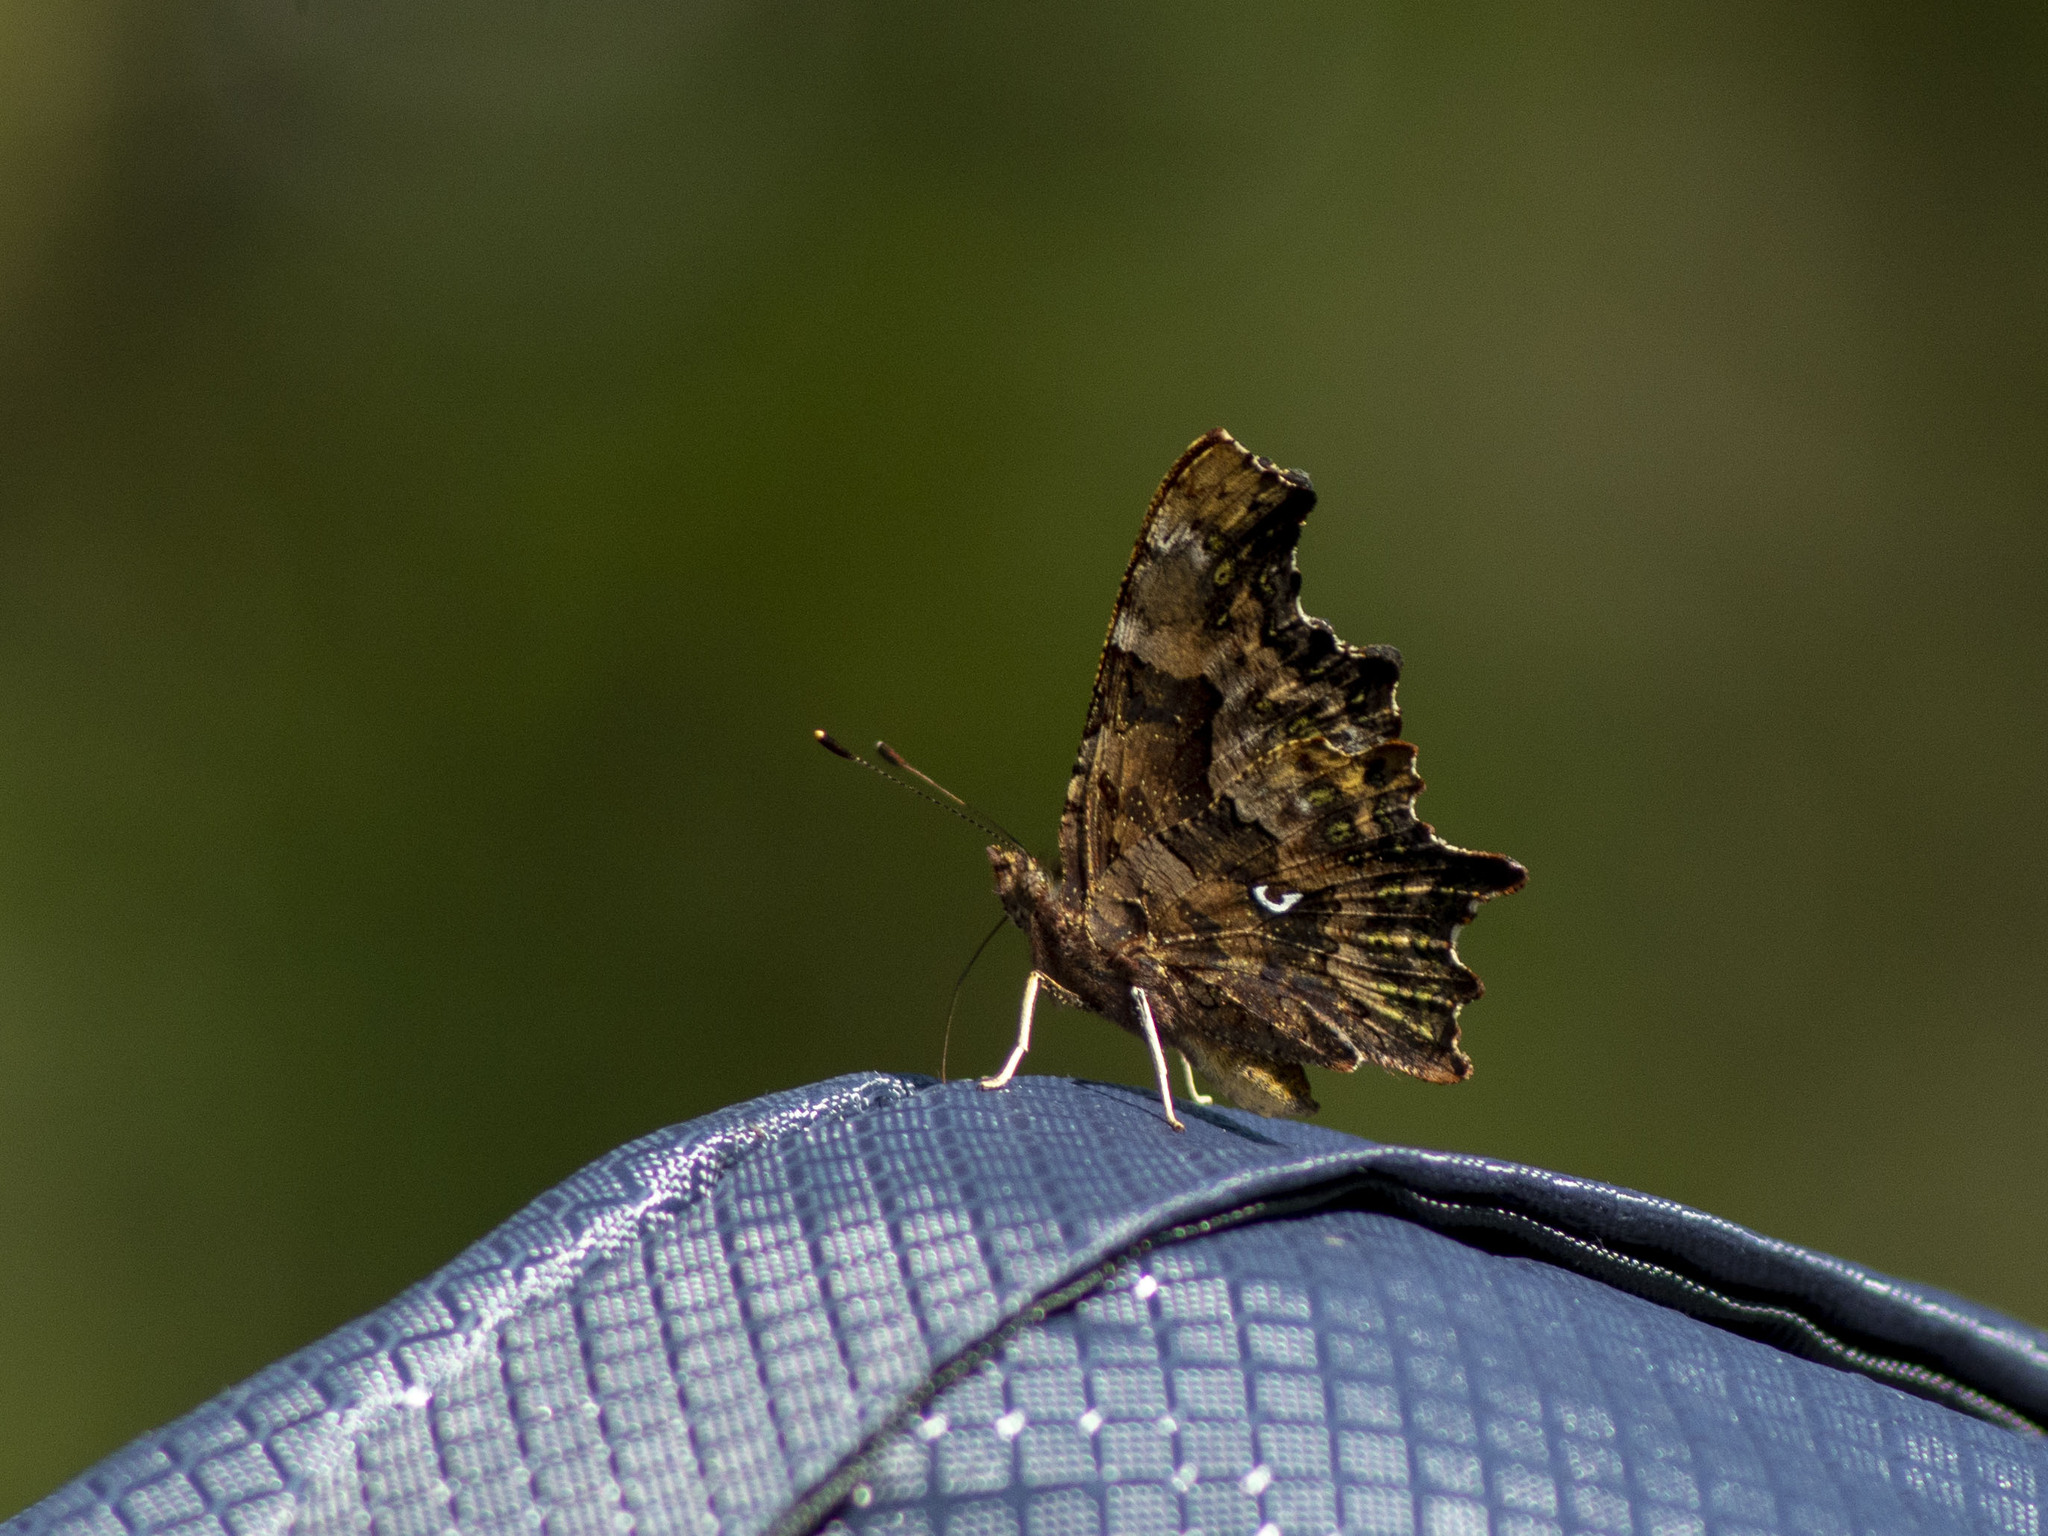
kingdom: Animalia
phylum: Arthropoda
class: Insecta
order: Lepidoptera
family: Nymphalidae
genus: Polygonia
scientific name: Polygonia c-album
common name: Comma
